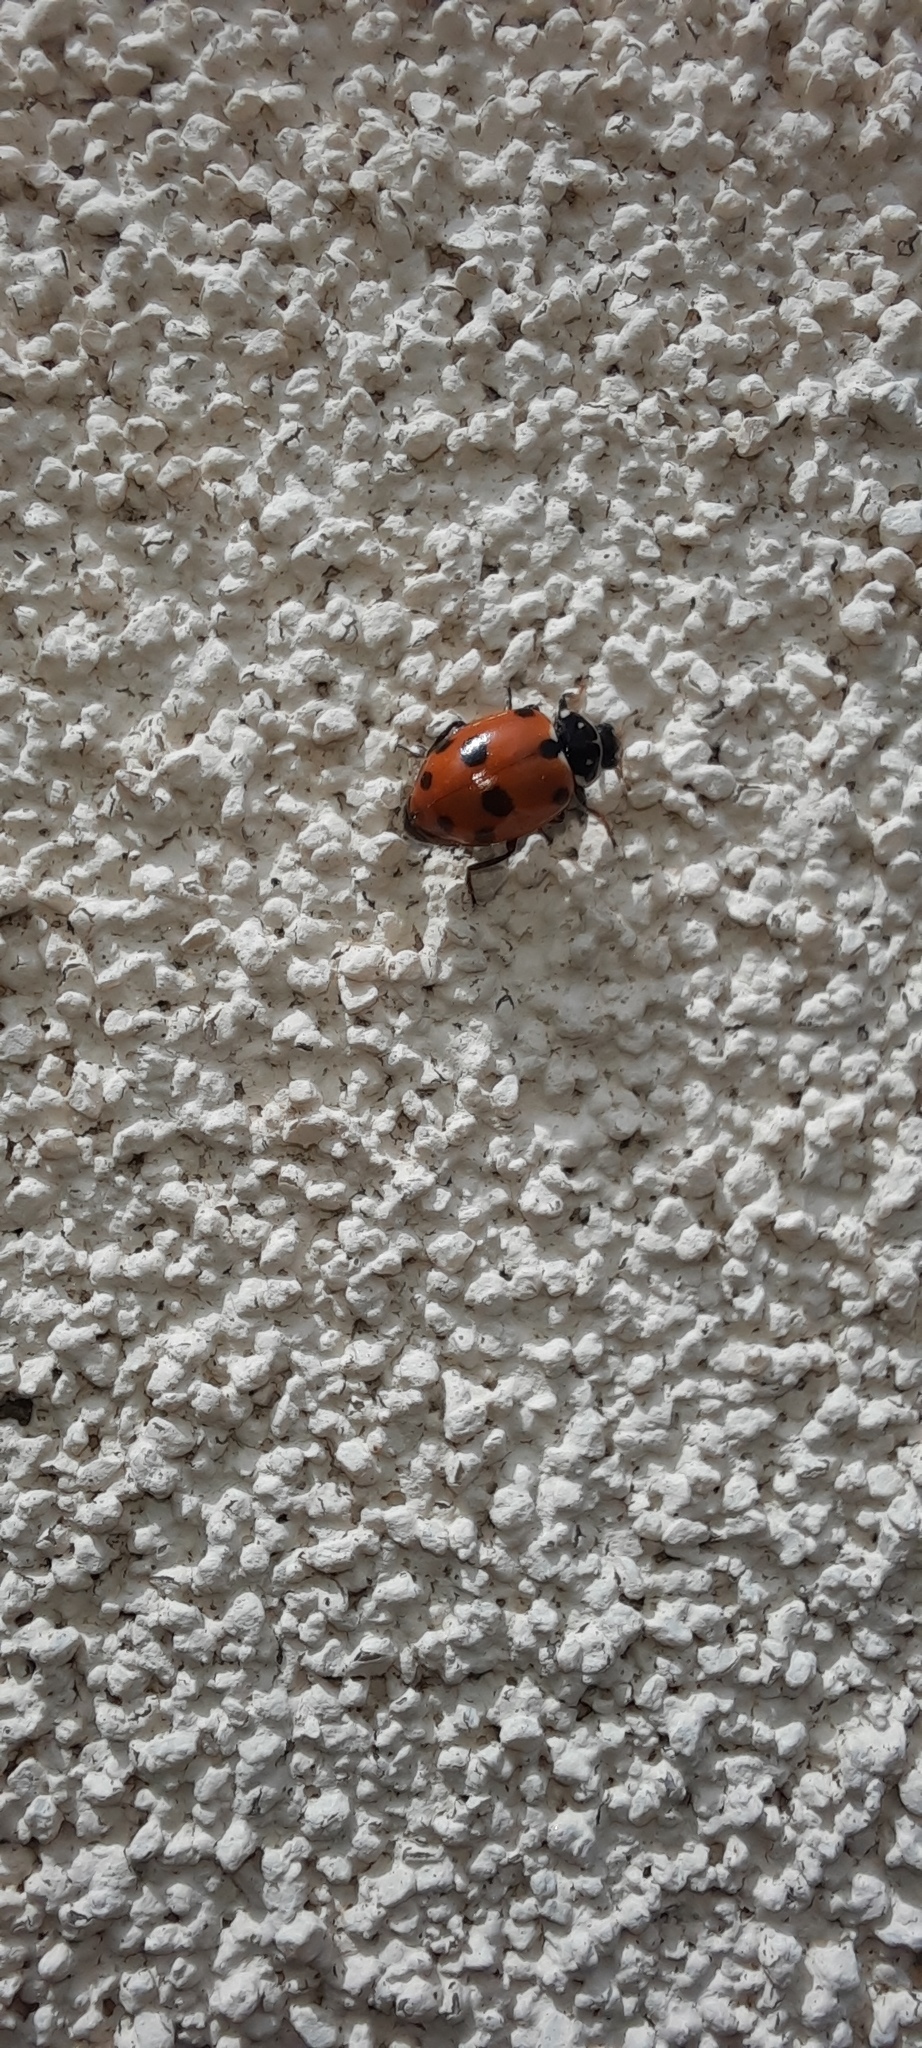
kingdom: Animalia
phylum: Arthropoda
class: Insecta
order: Coleoptera
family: Coccinellidae
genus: Hippodamia
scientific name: Hippodamia variegata
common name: Ladybird beetle
